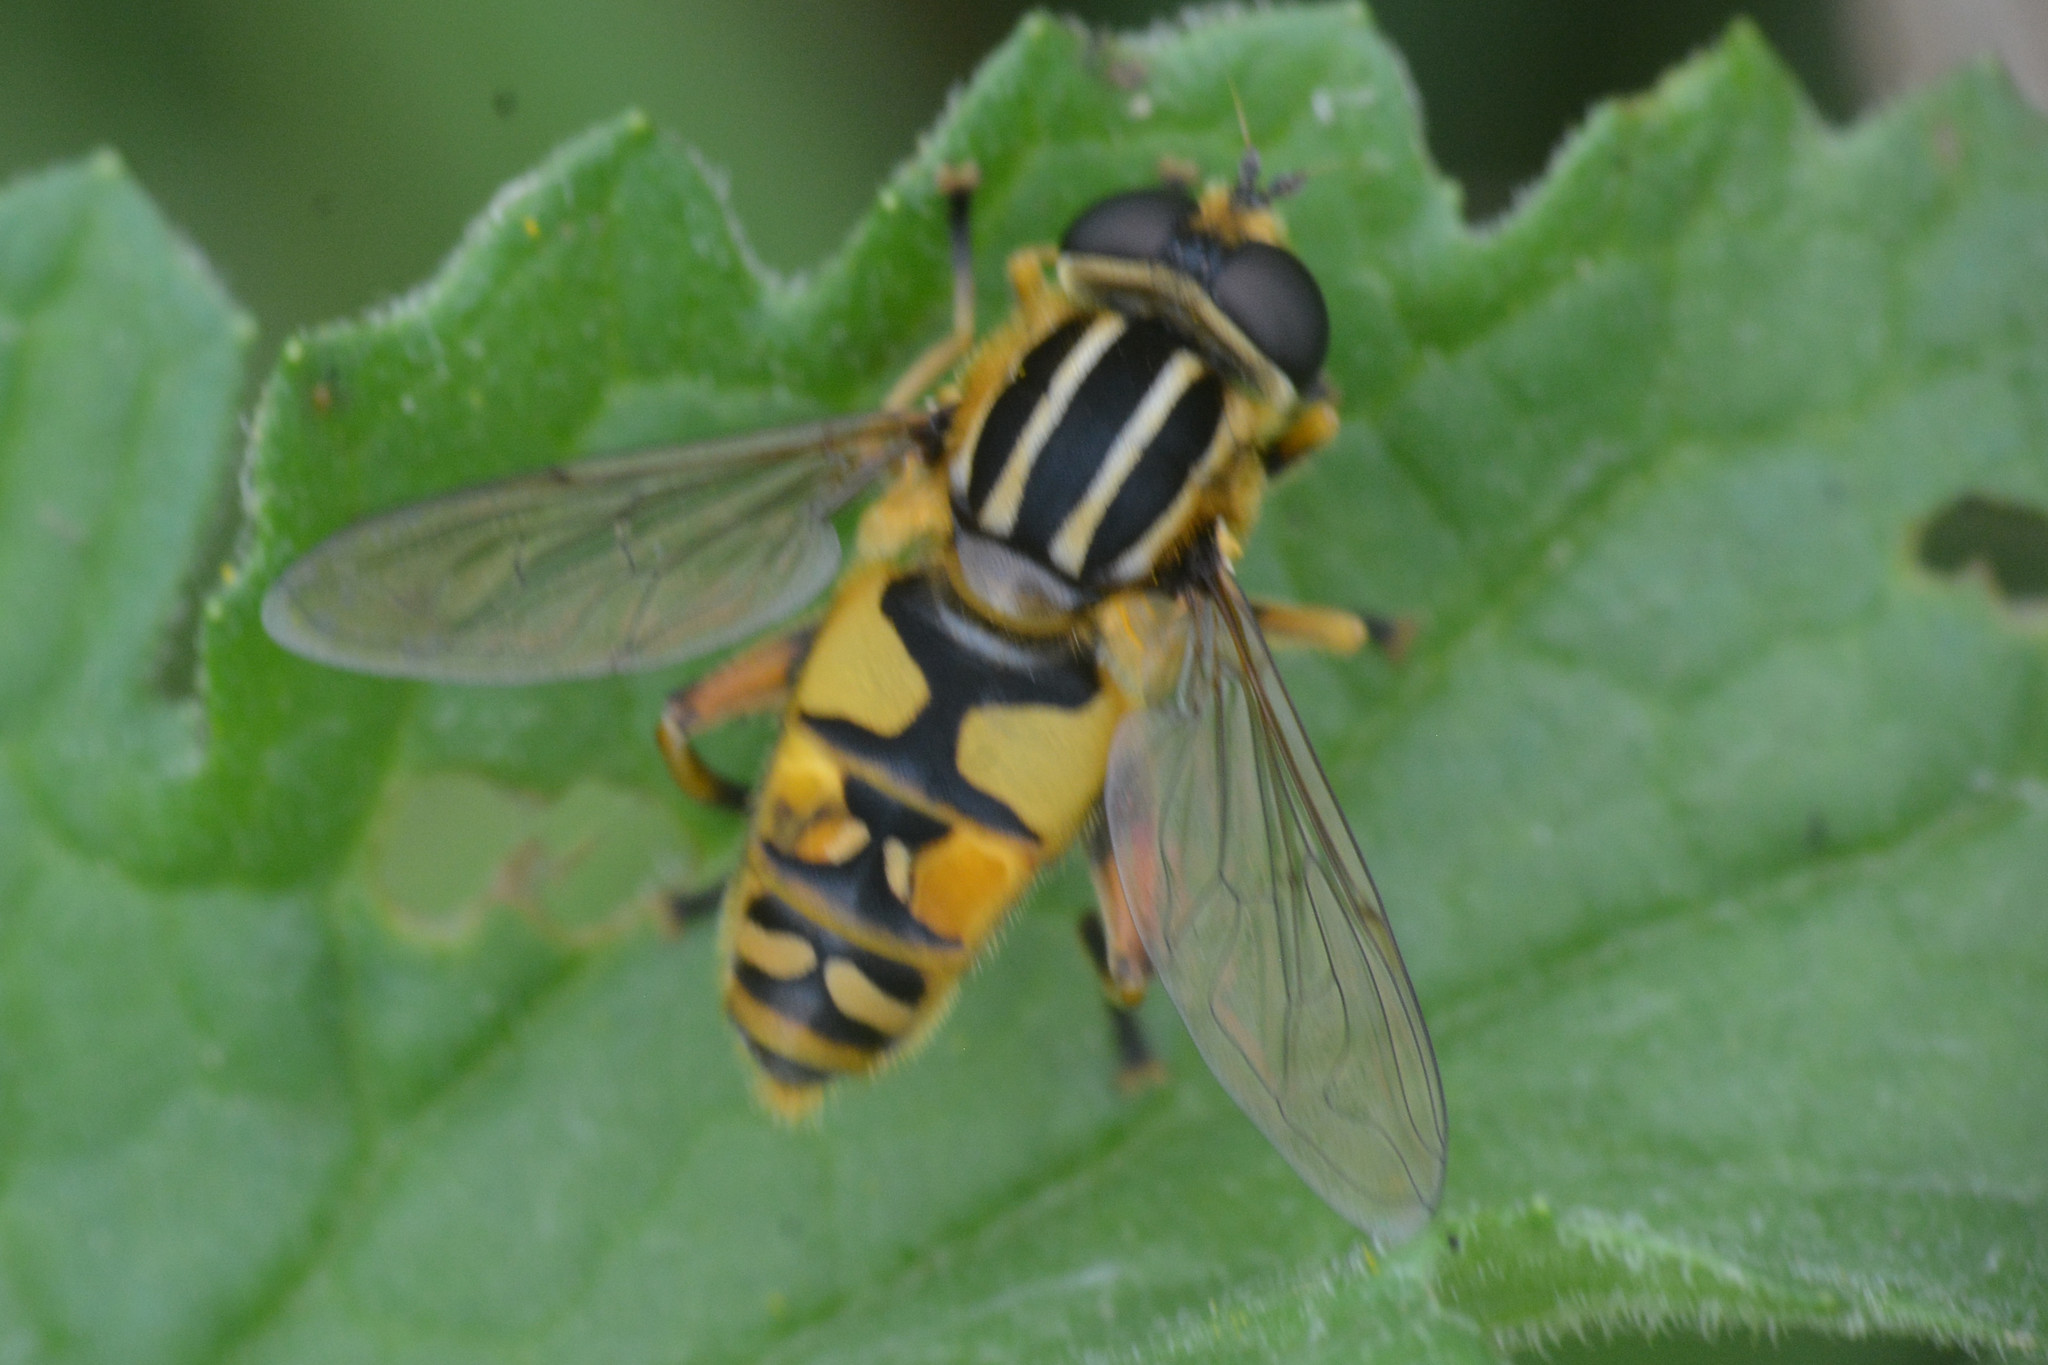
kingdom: Animalia
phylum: Arthropoda
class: Insecta
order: Diptera
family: Syrphidae
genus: Helophilus
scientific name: Helophilus pendulus
